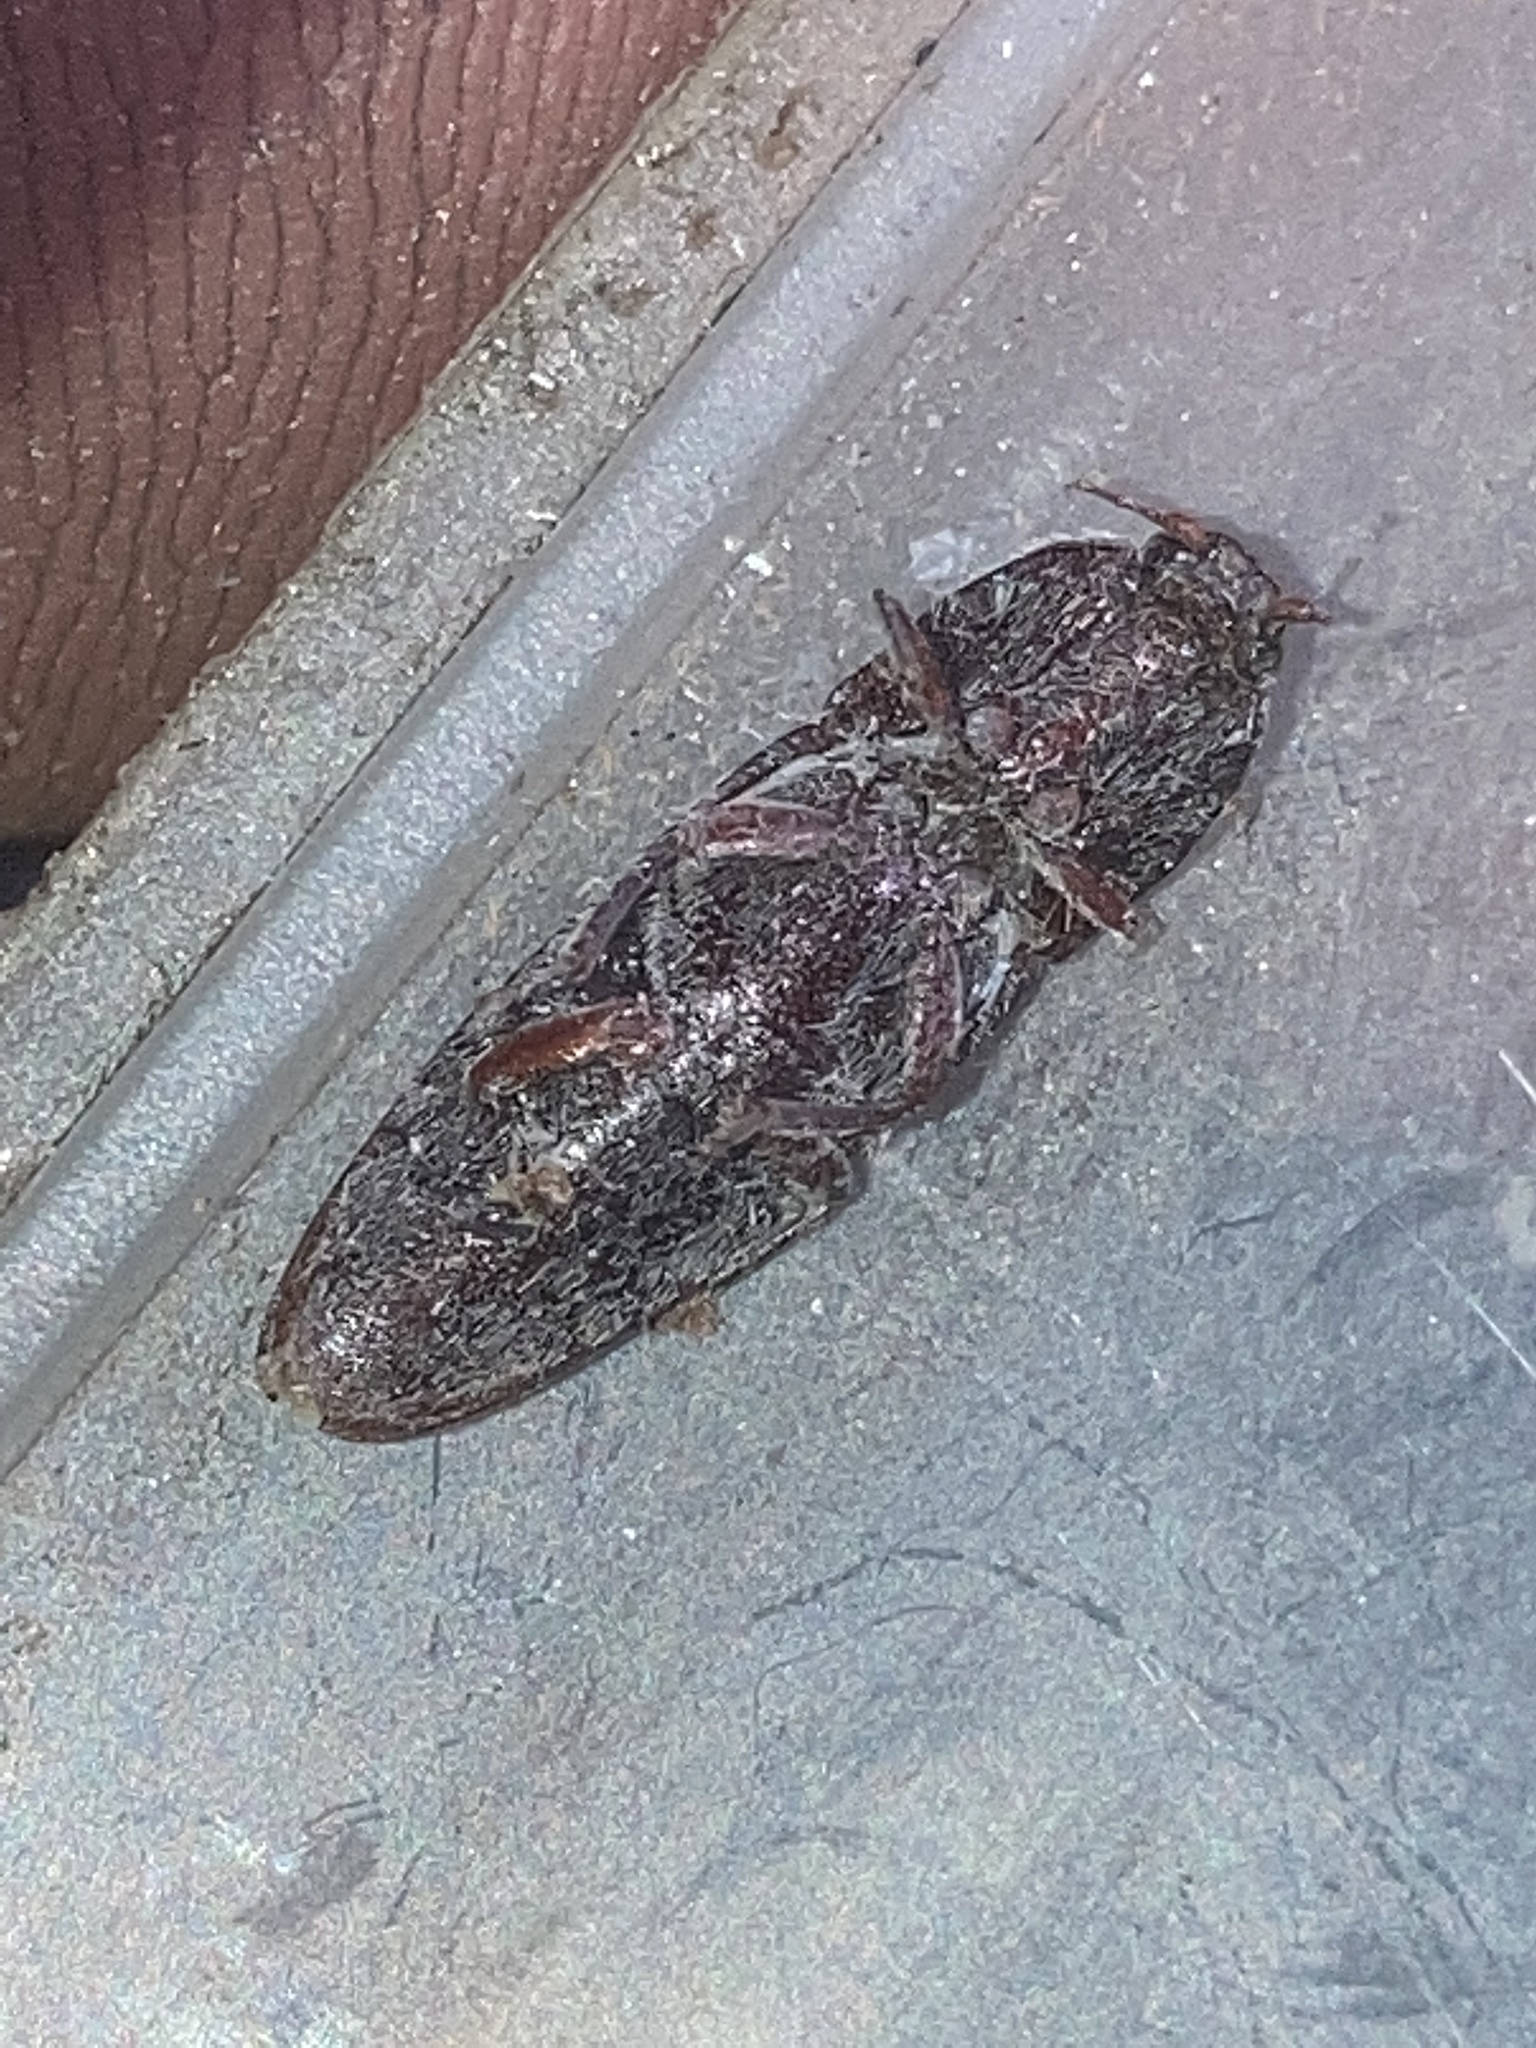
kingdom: Animalia
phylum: Arthropoda
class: Insecta
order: Coleoptera
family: Elateridae
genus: Melanotus
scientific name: Melanotus
